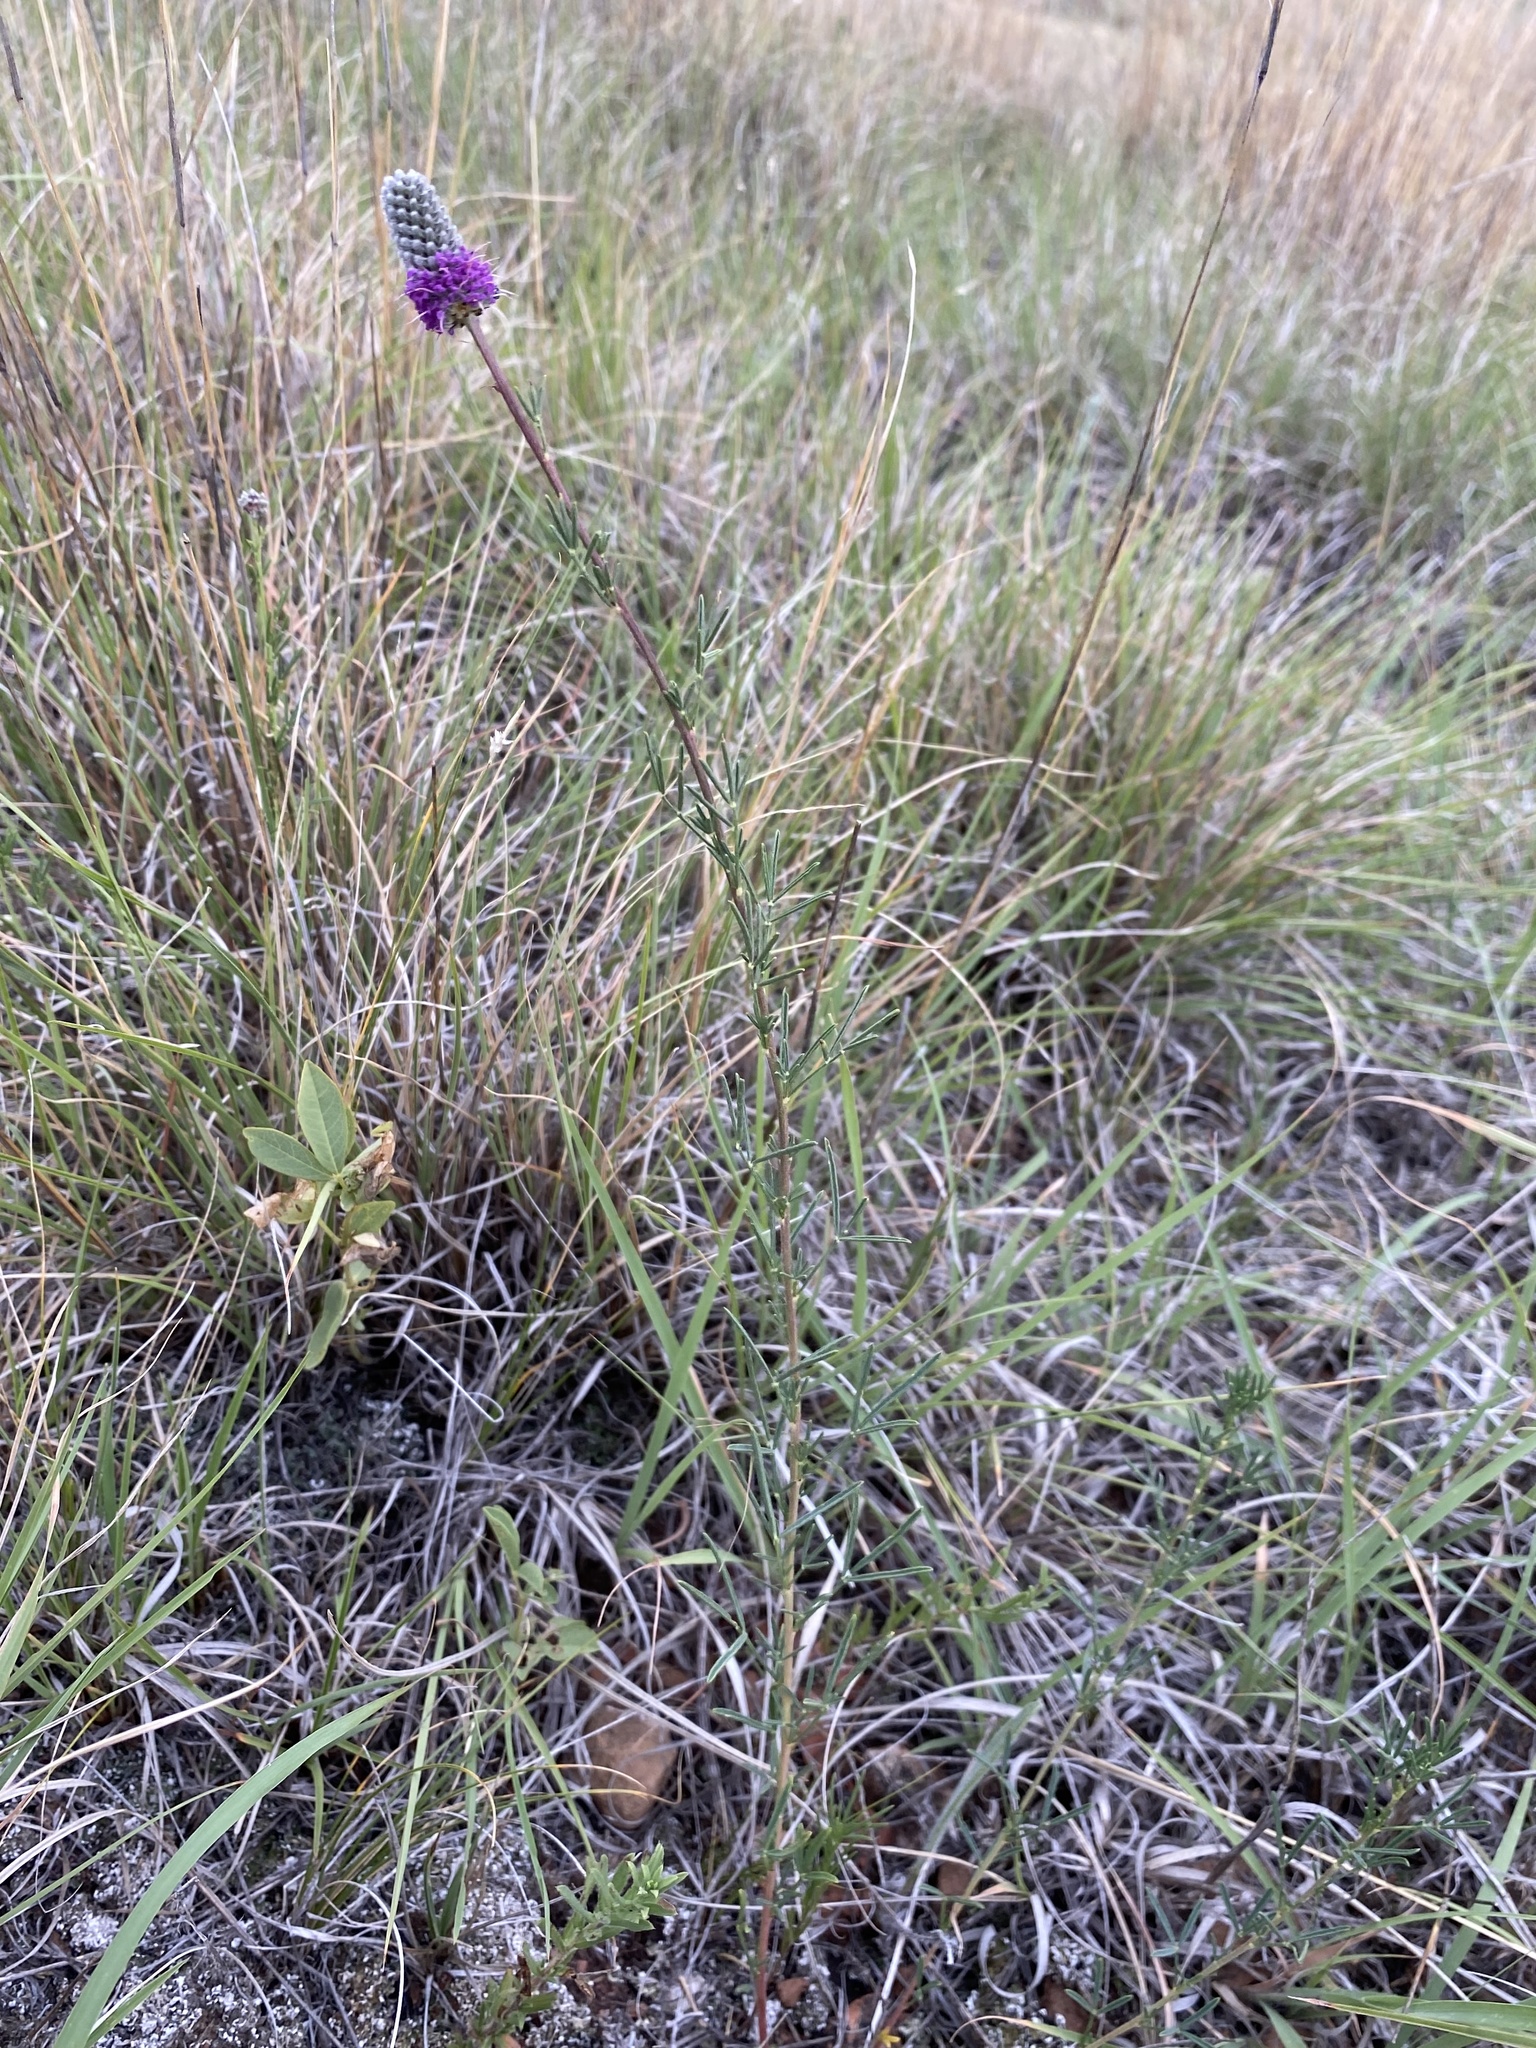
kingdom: Plantae
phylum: Tracheophyta
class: Magnoliopsida
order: Fabales
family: Fabaceae
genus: Dalea
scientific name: Dalea purpurea
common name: Purple prairie-clover
